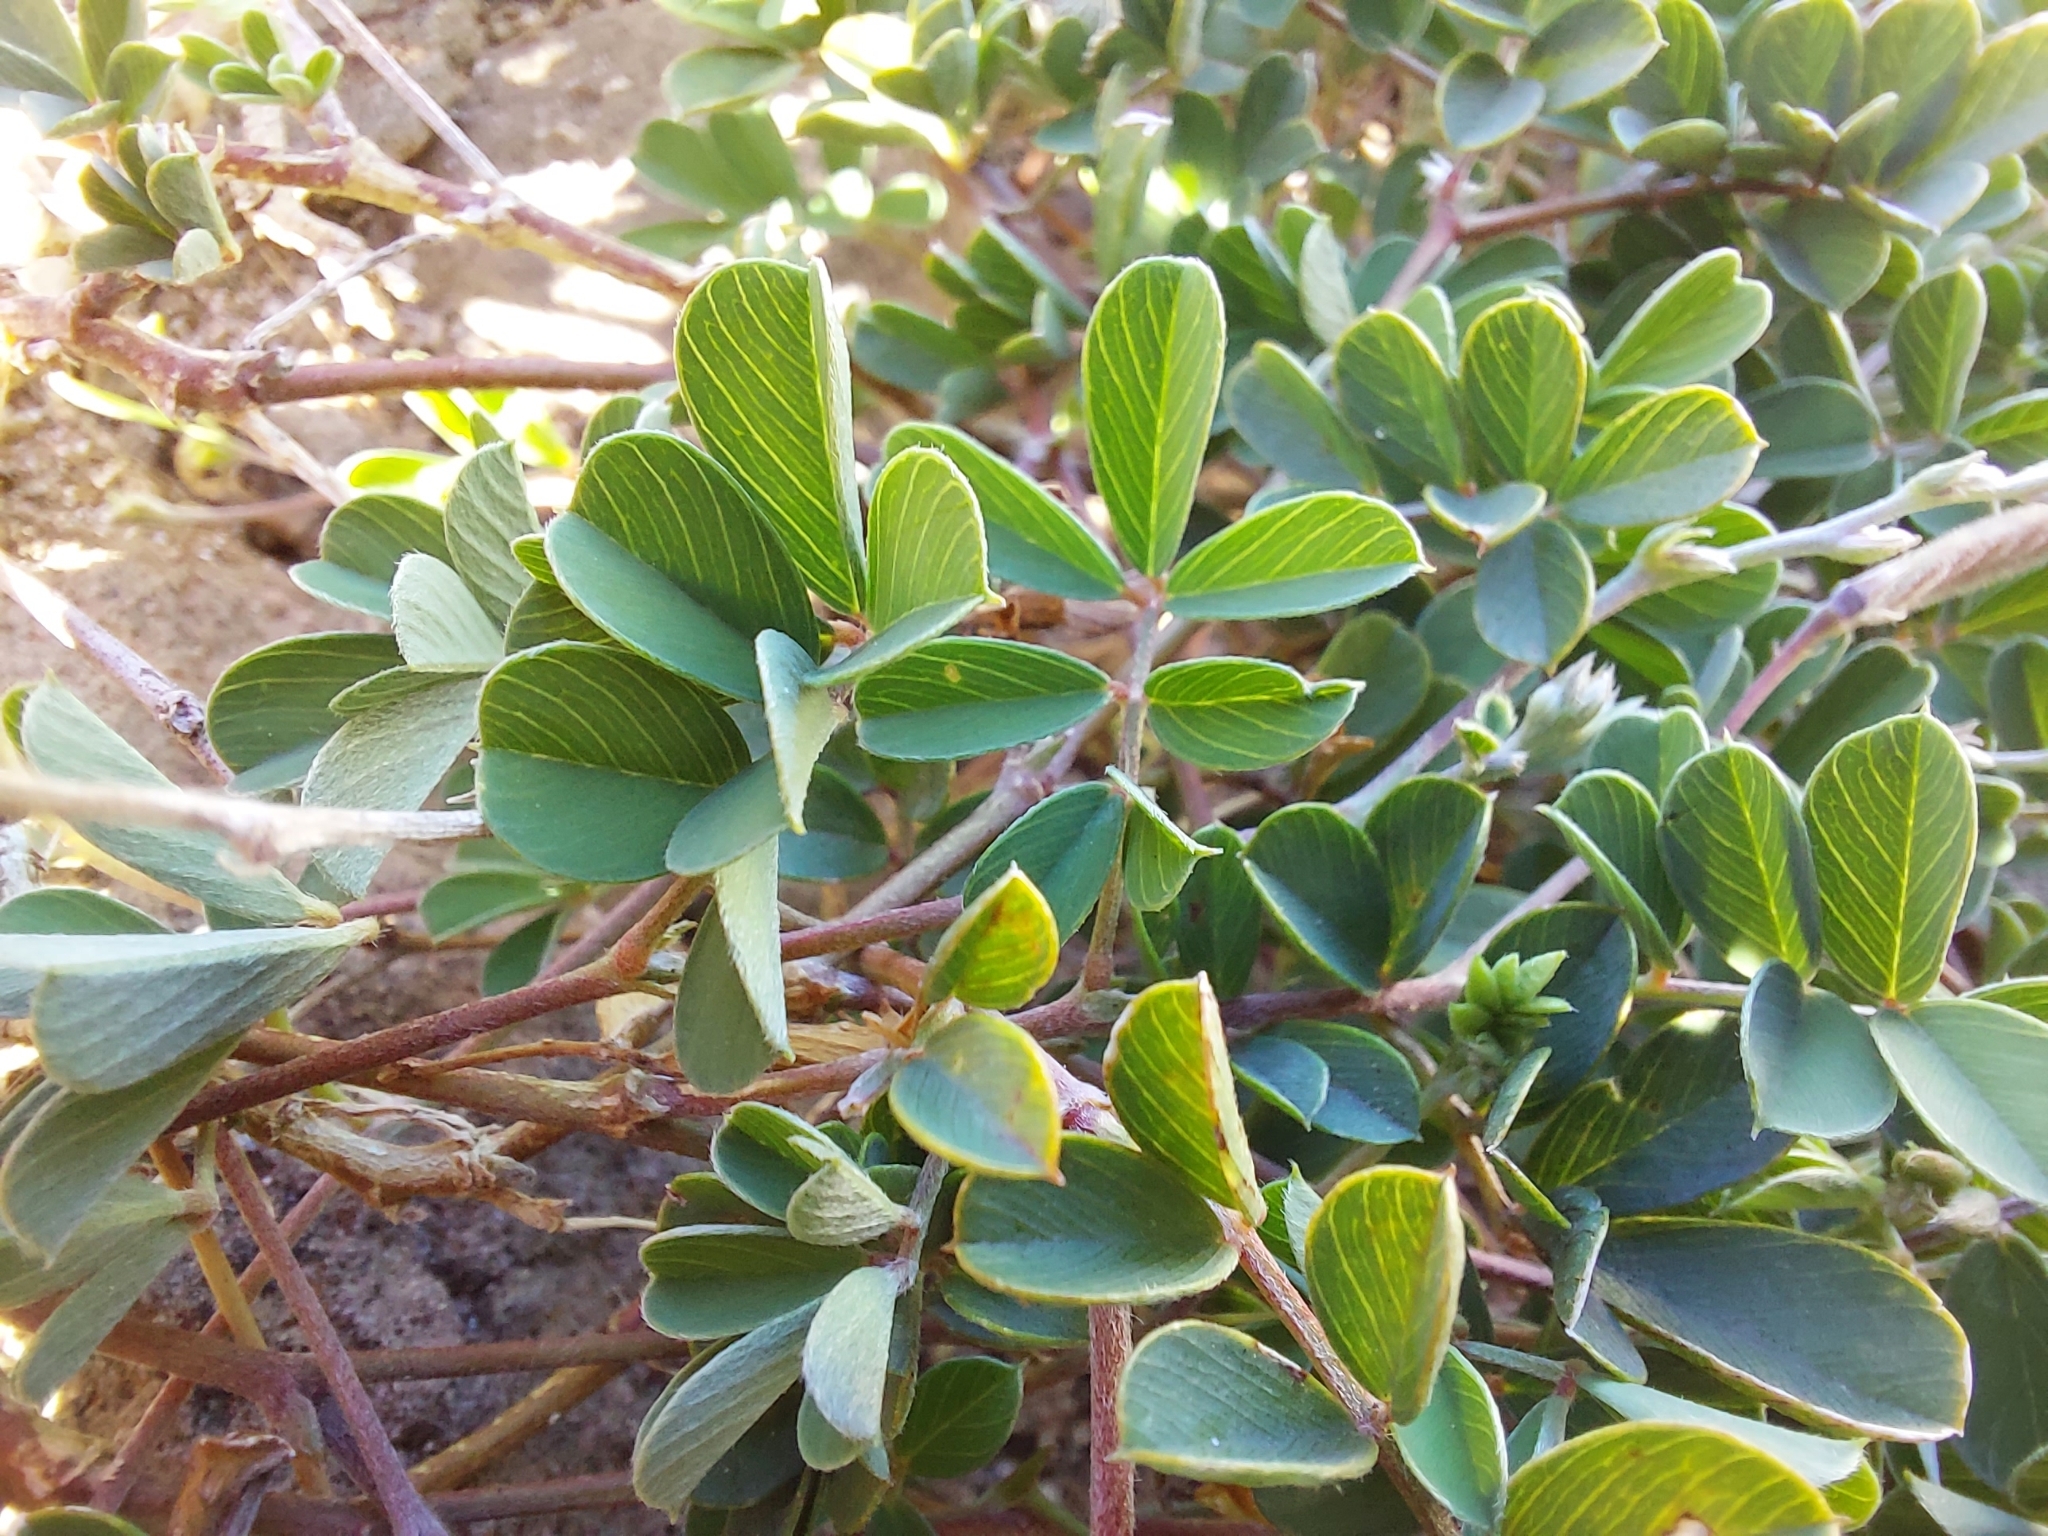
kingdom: Plantae
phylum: Tracheophyta
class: Magnoliopsida
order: Fabales
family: Fabaceae
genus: Tephrosia
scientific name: Tephrosia obovata
